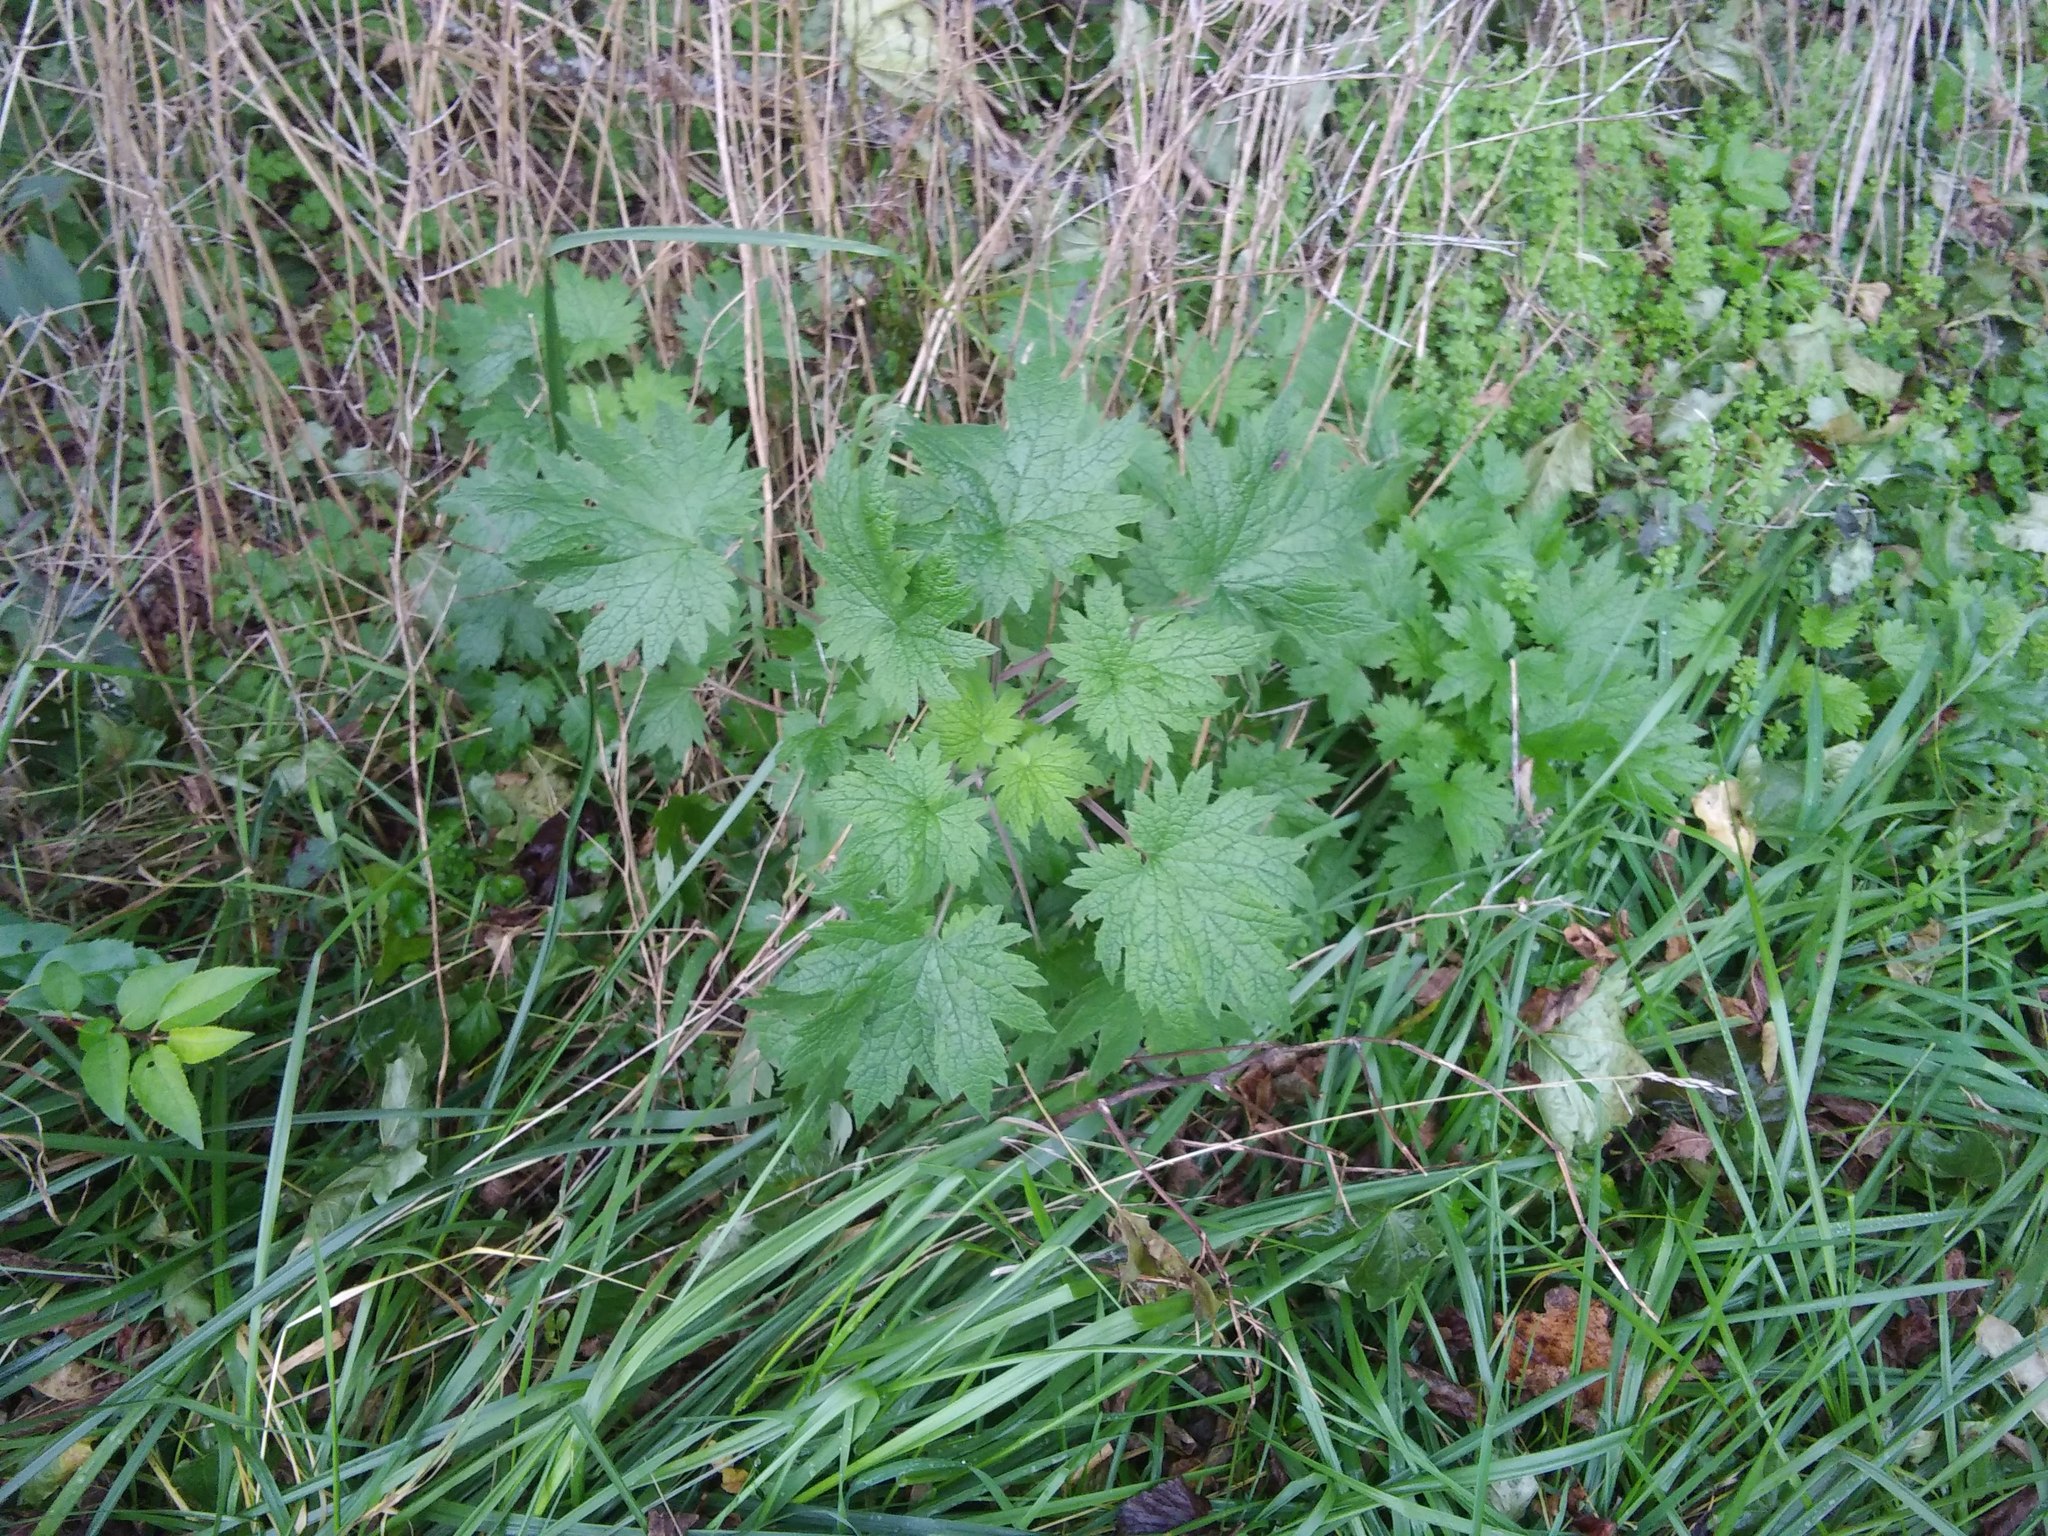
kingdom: Plantae
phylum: Tracheophyta
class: Magnoliopsida
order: Lamiales
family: Lamiaceae
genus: Leonurus
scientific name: Leonurus cardiaca
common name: Motherwort
